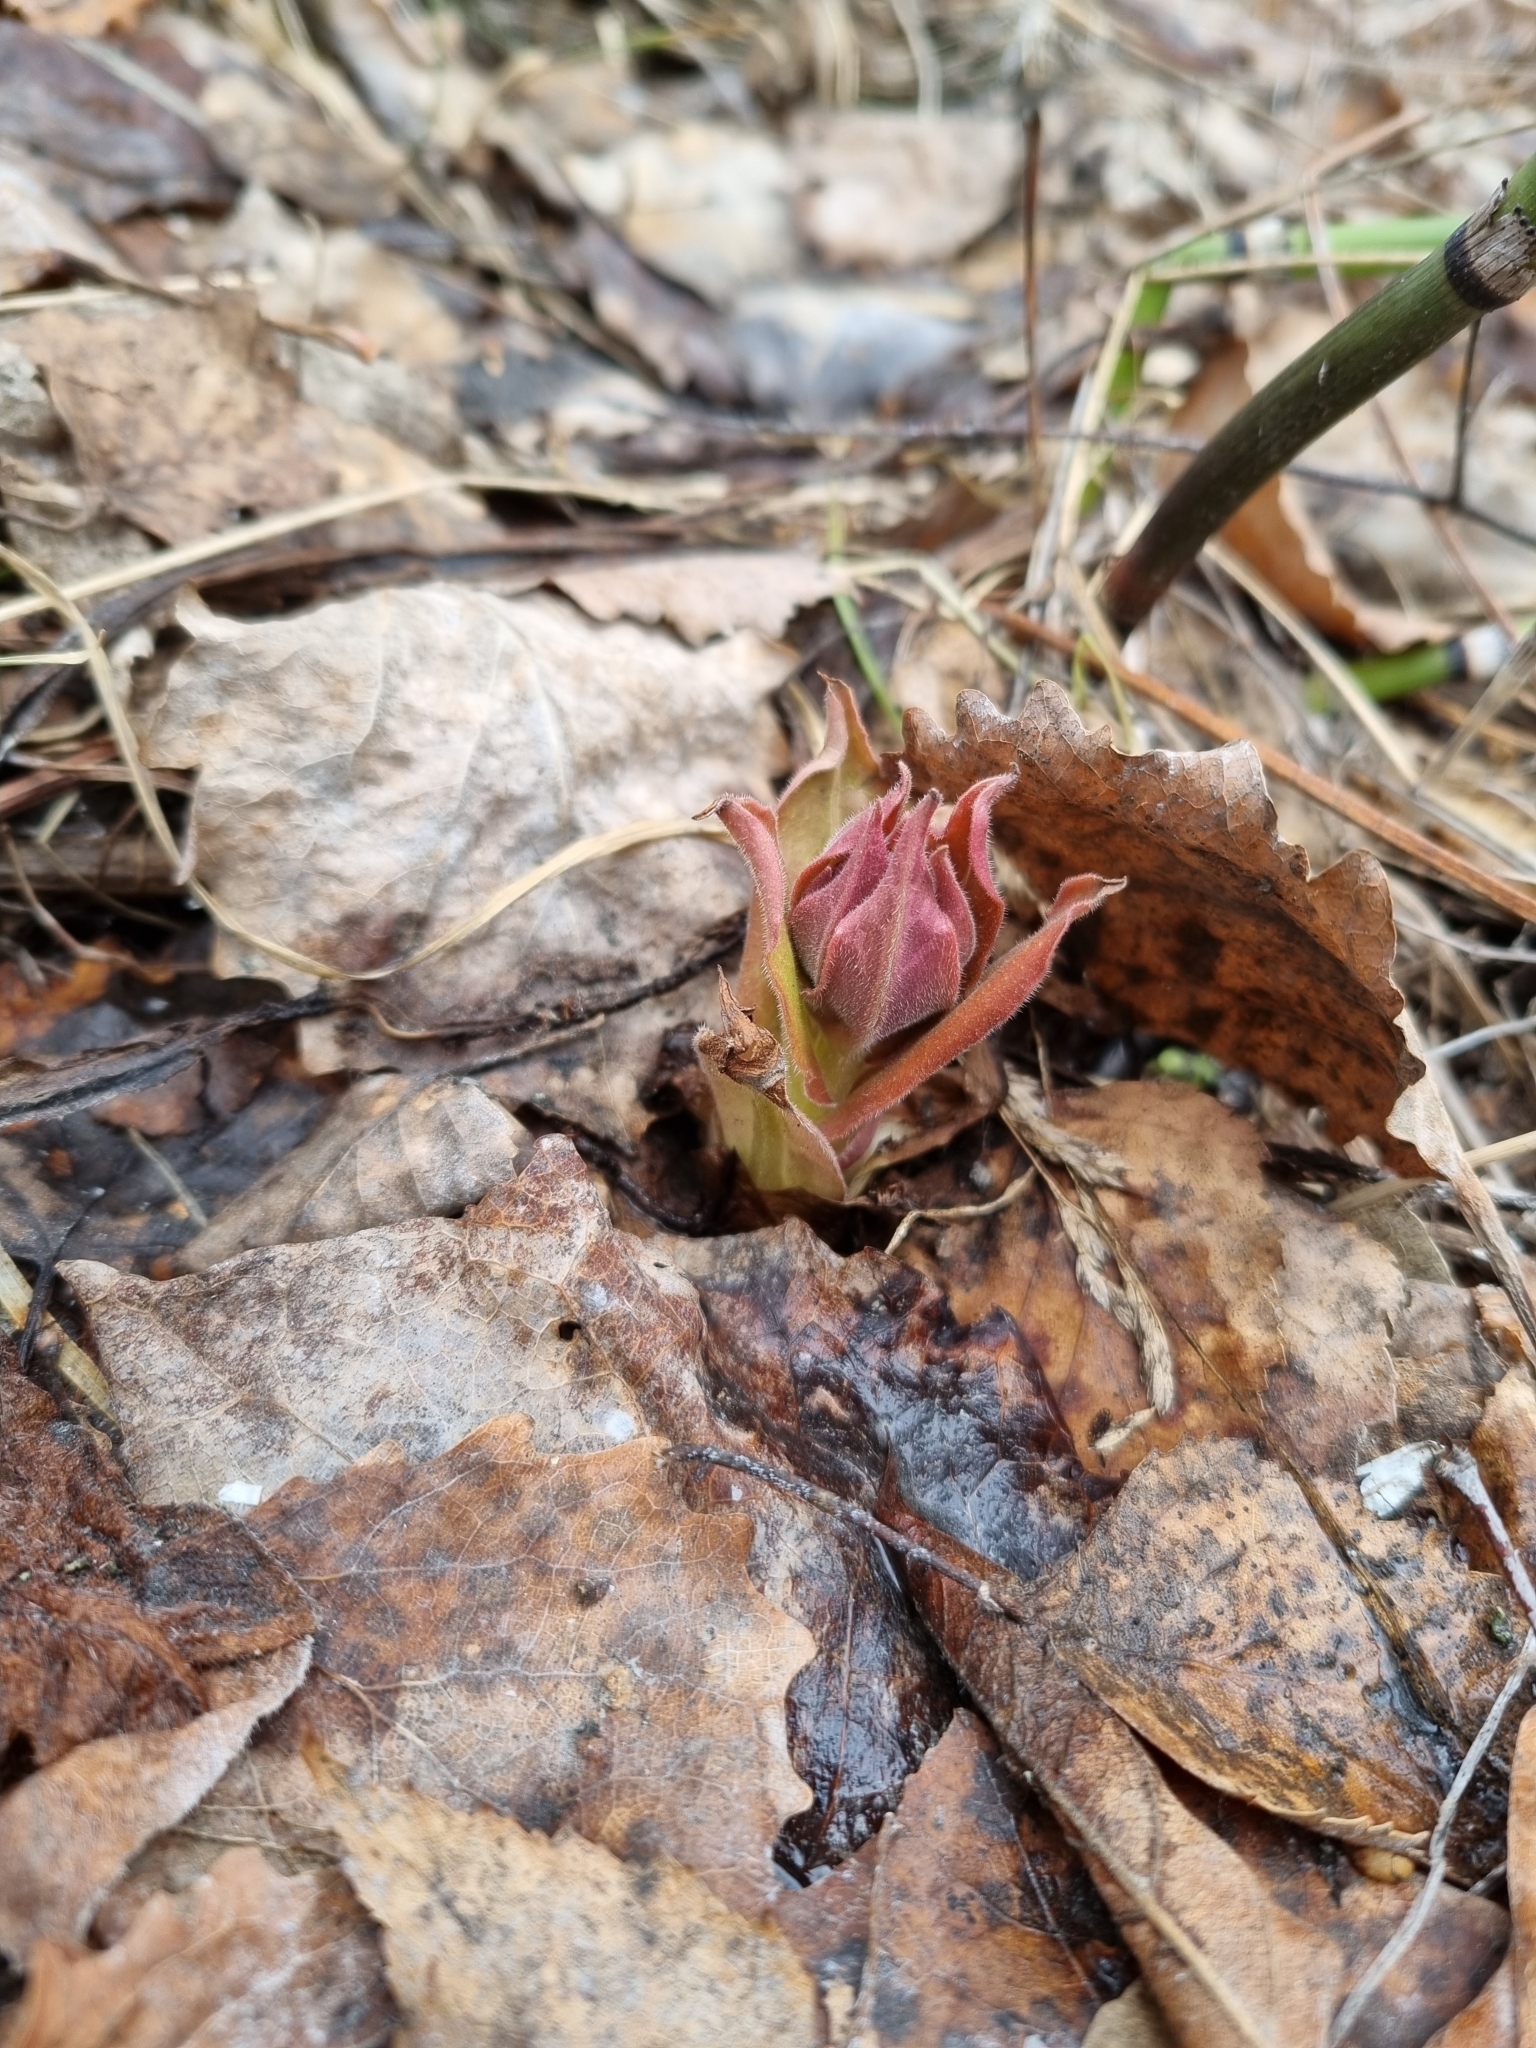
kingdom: Plantae
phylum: Tracheophyta
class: Magnoliopsida
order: Boraginales
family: Boraginaceae
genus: Pulmonaria
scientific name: Pulmonaria mollis
